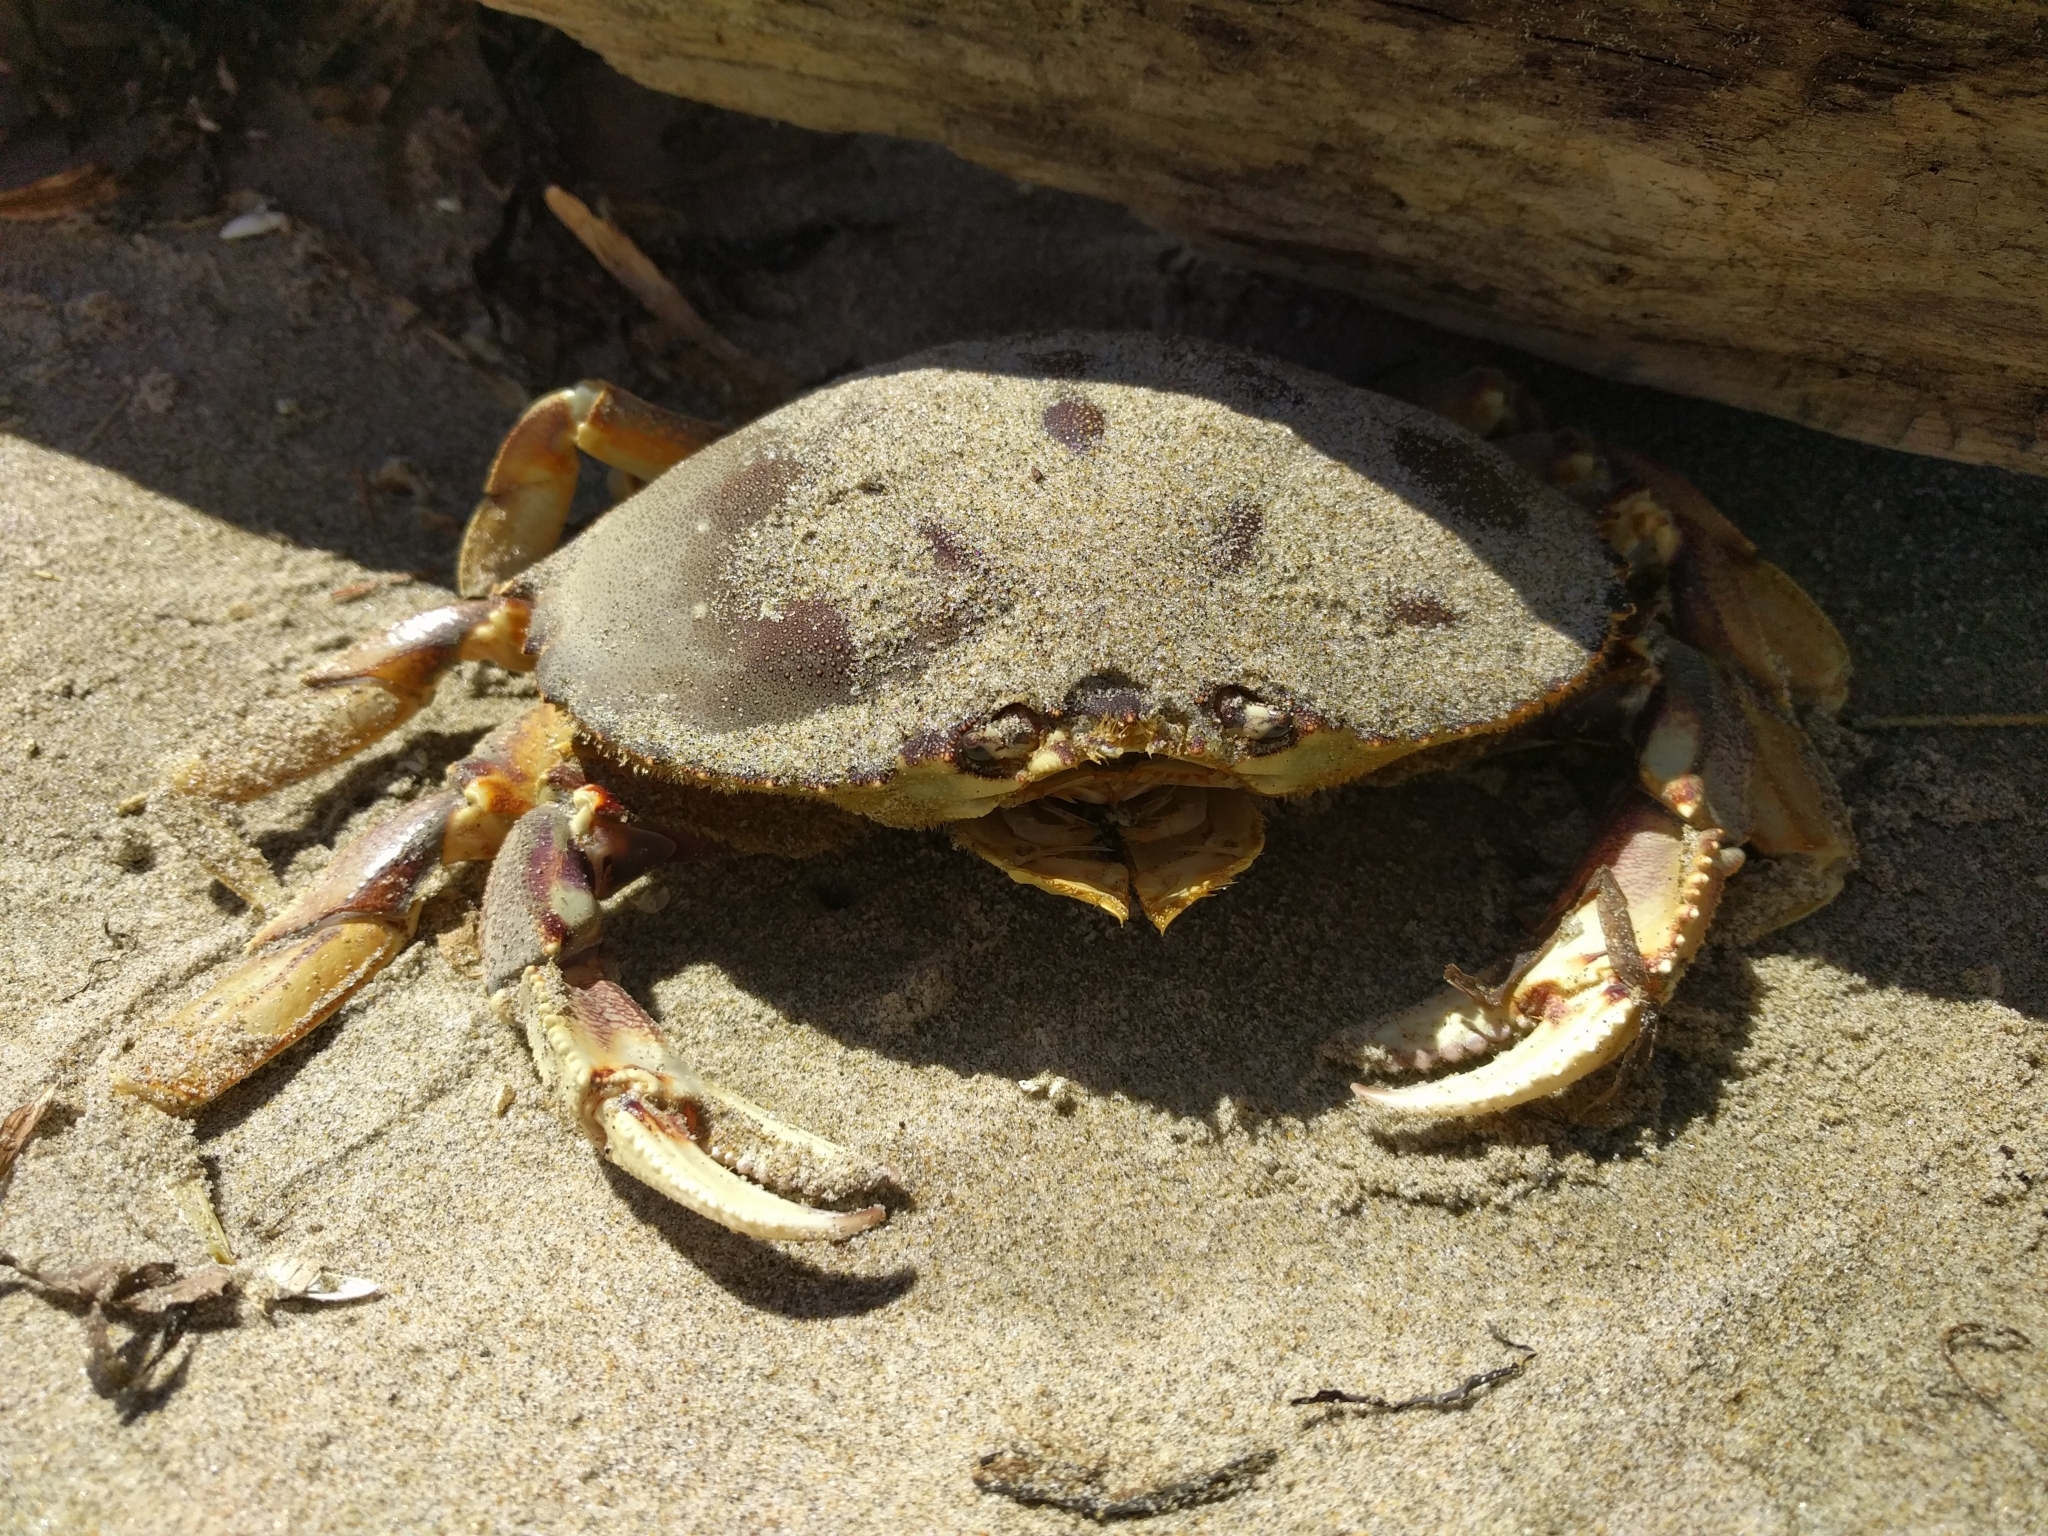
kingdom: Animalia
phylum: Arthropoda
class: Malacostraca
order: Decapoda
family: Cancridae
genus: Metacarcinus
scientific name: Metacarcinus magister
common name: Californian crab
